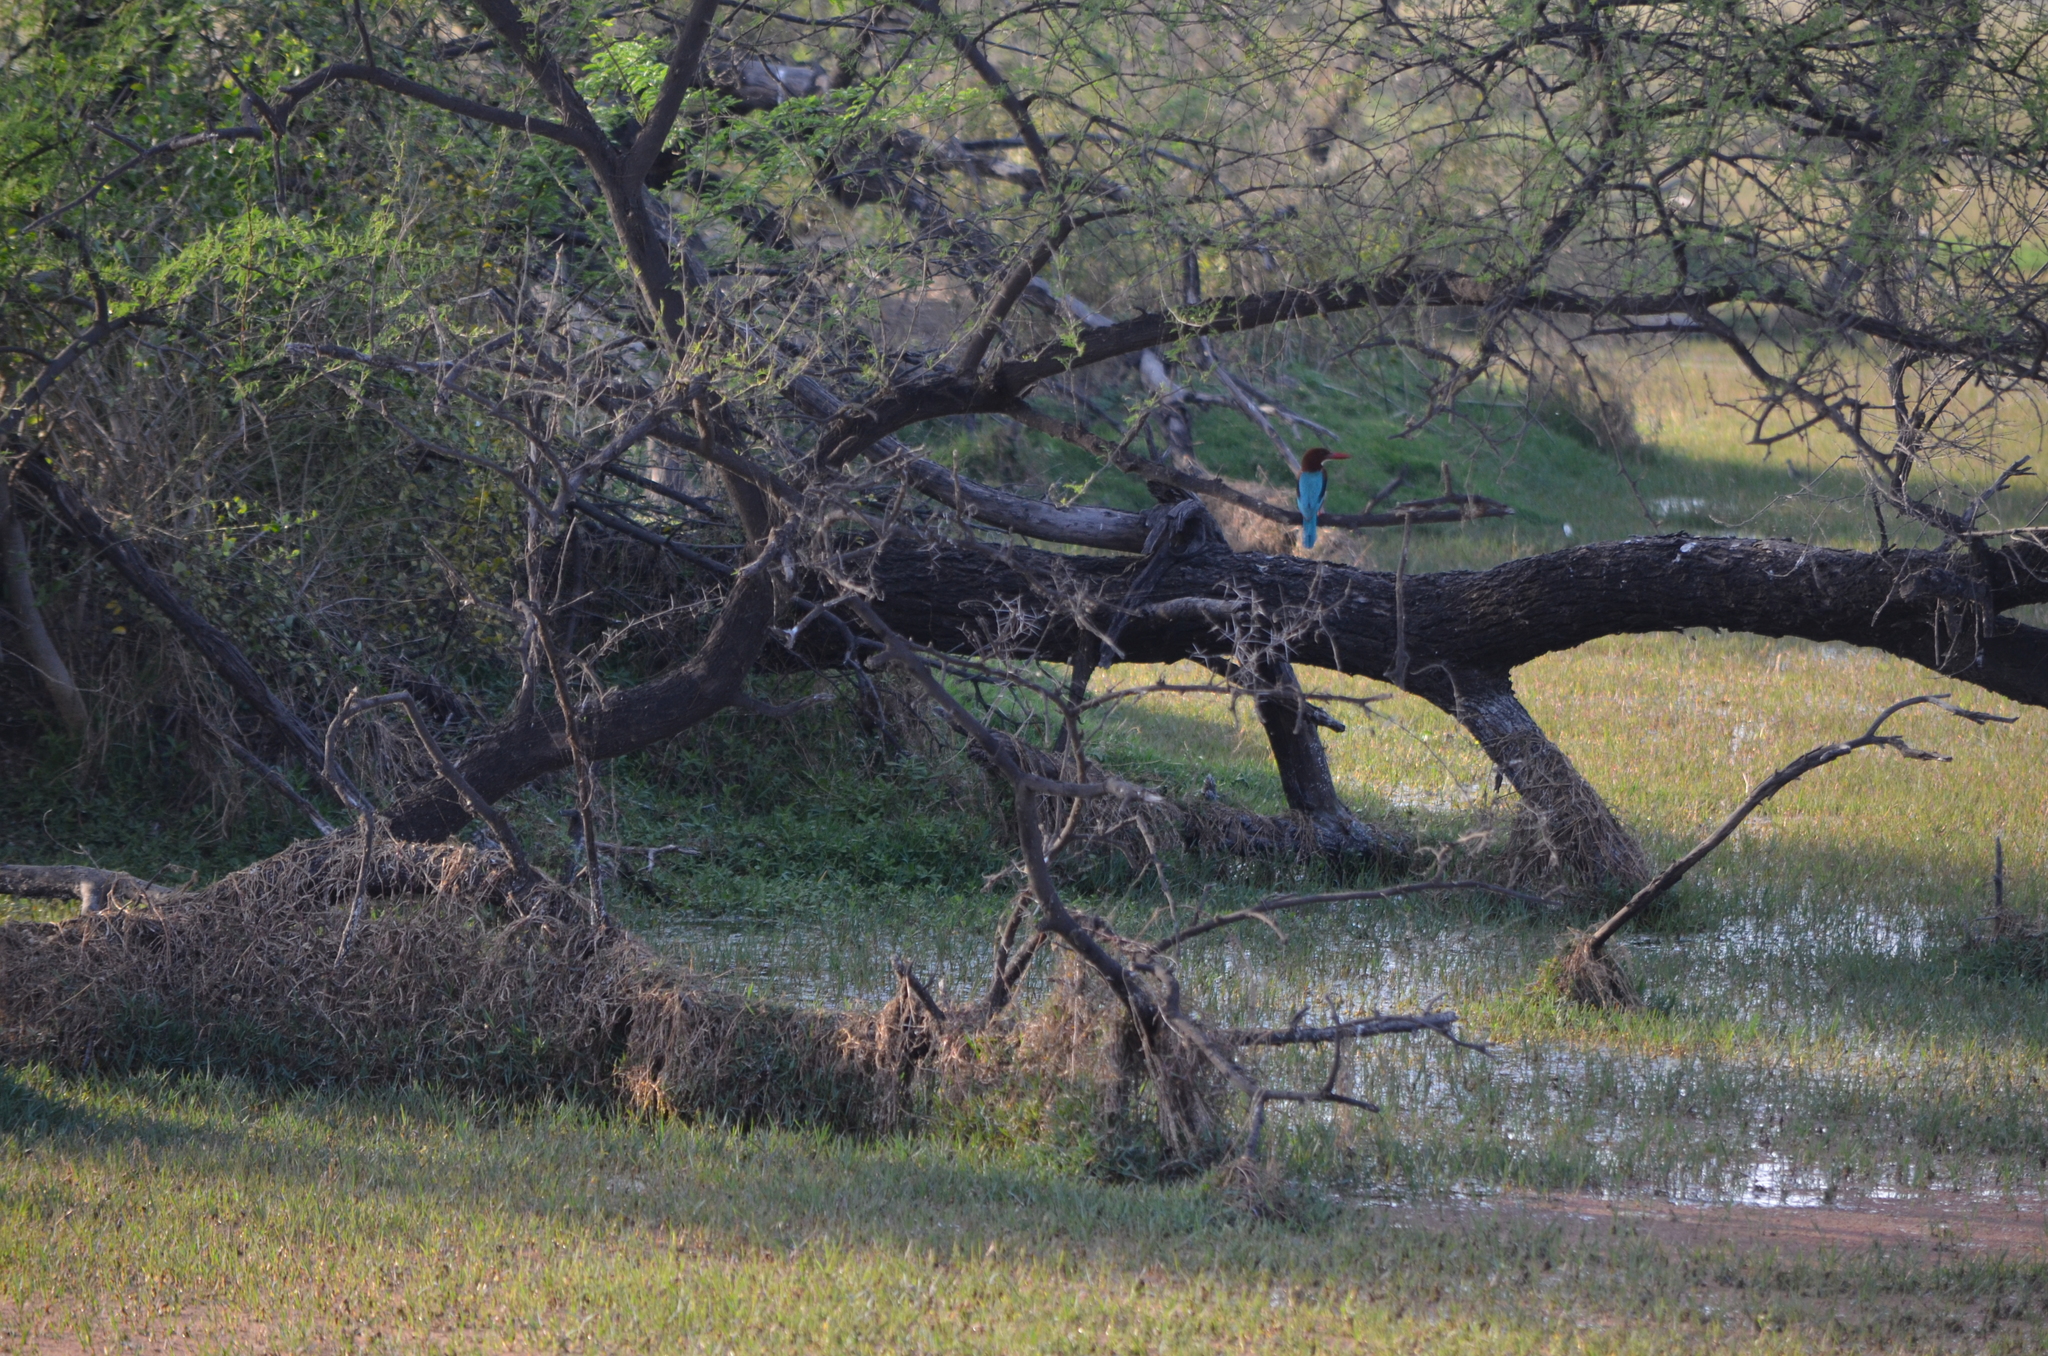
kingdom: Animalia
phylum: Chordata
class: Aves
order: Coraciiformes
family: Alcedinidae
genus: Halcyon
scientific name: Halcyon smyrnensis
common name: White-throated kingfisher
